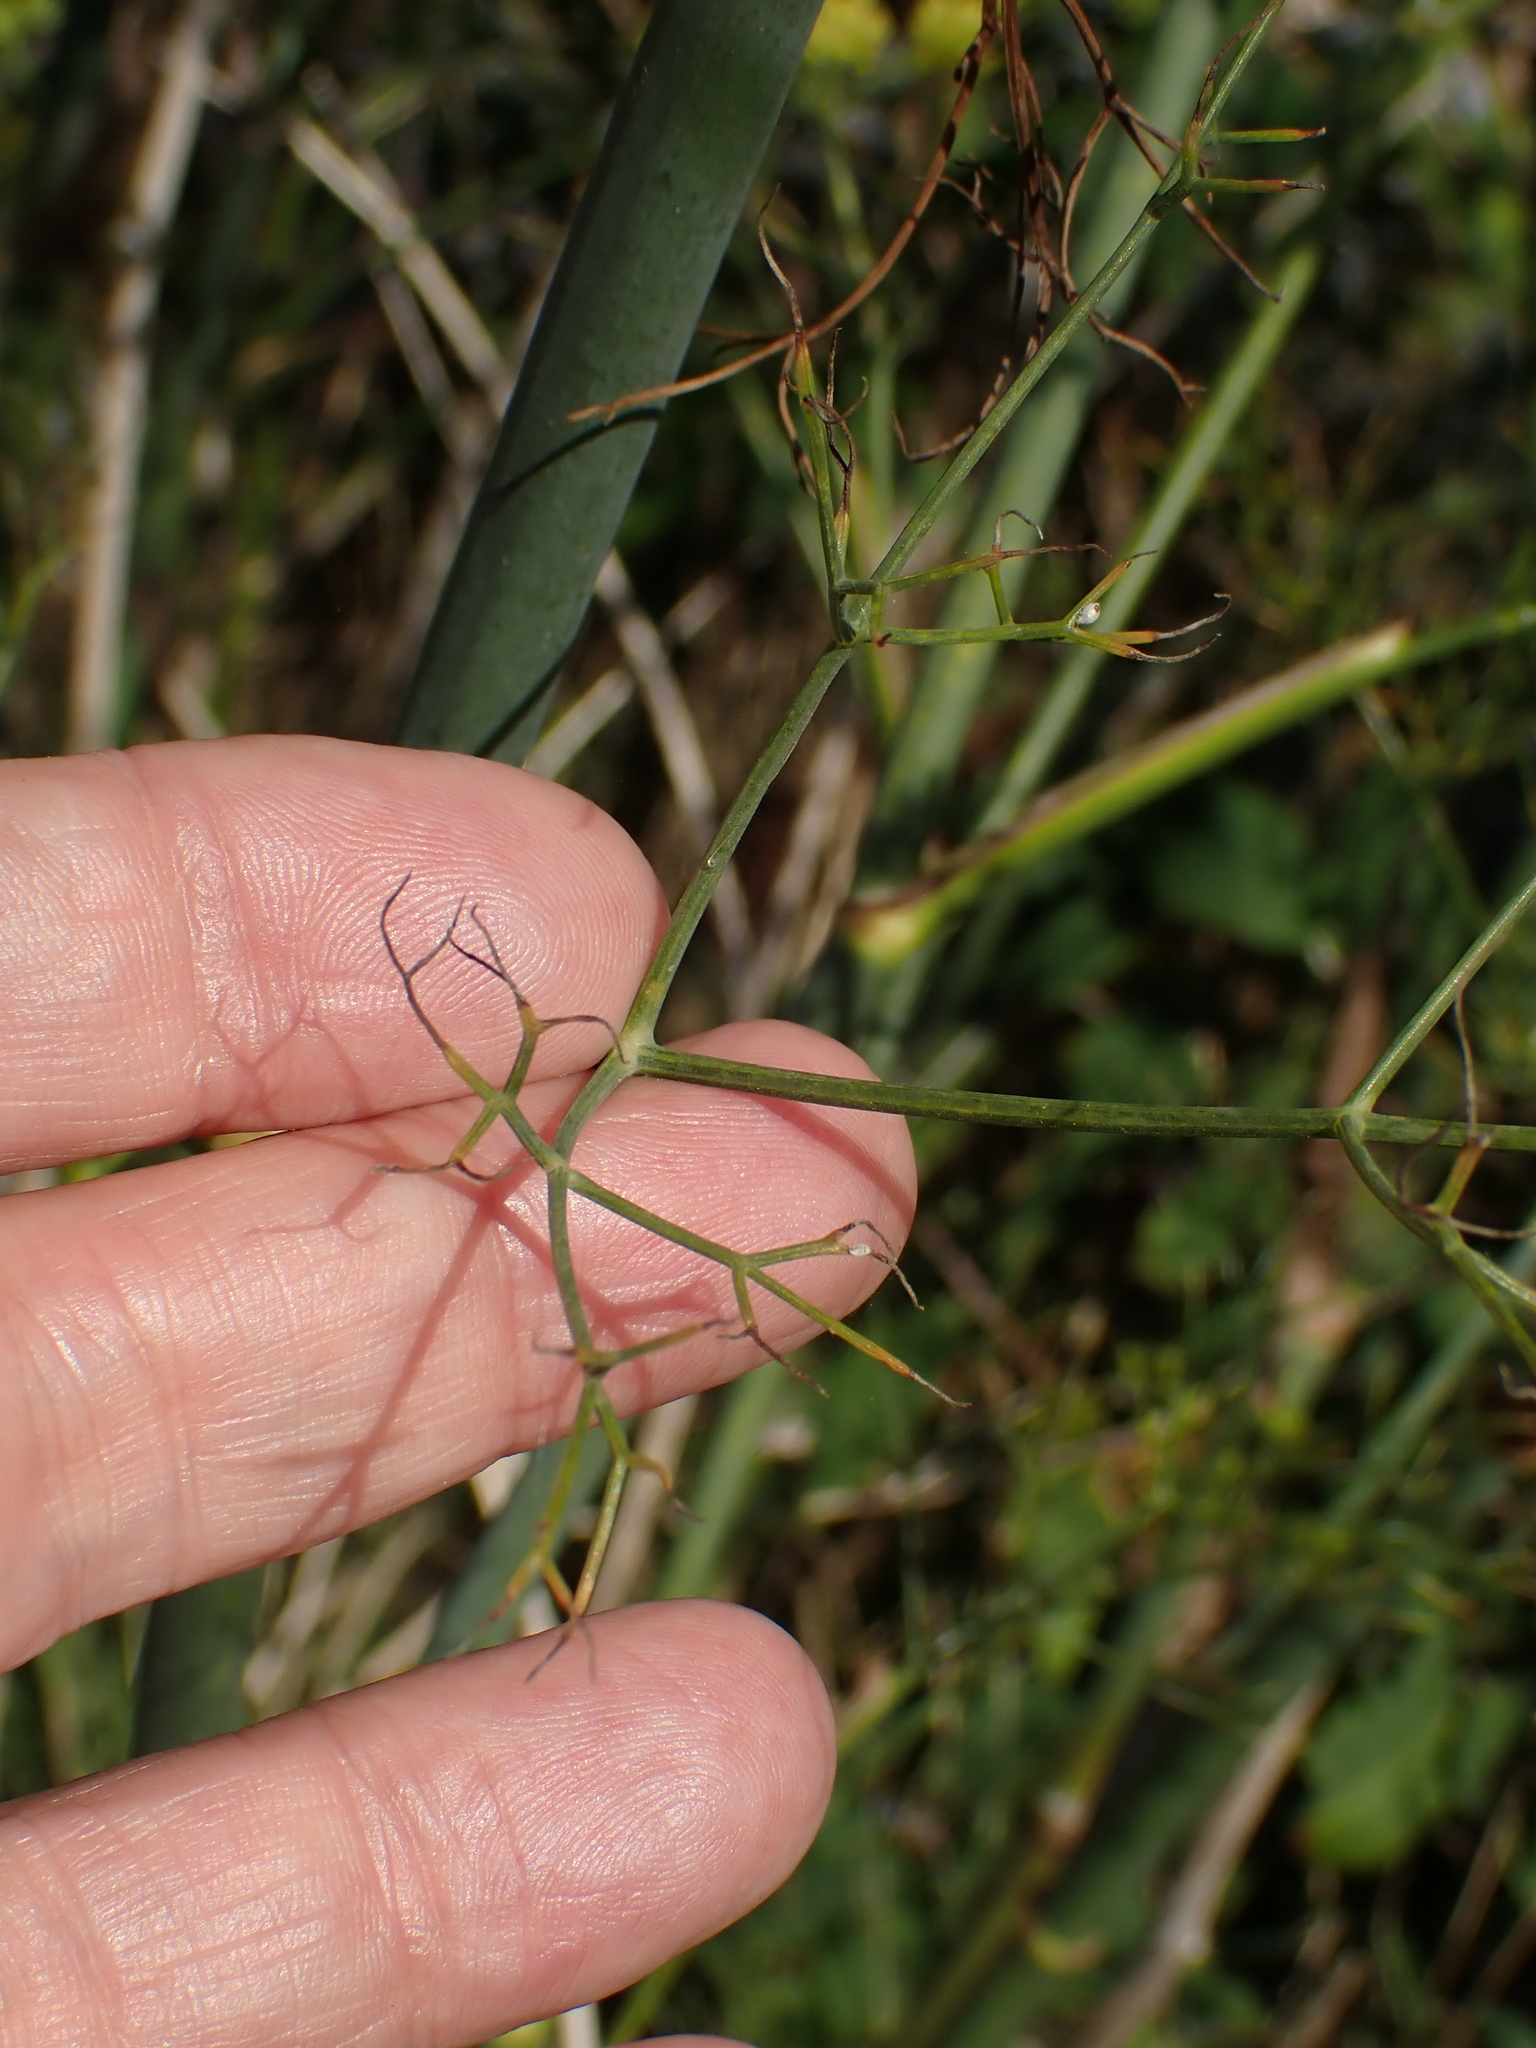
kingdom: Plantae
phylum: Tracheophyta
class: Magnoliopsida
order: Apiales
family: Apiaceae
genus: Foeniculum
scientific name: Foeniculum vulgare
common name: Fennel
